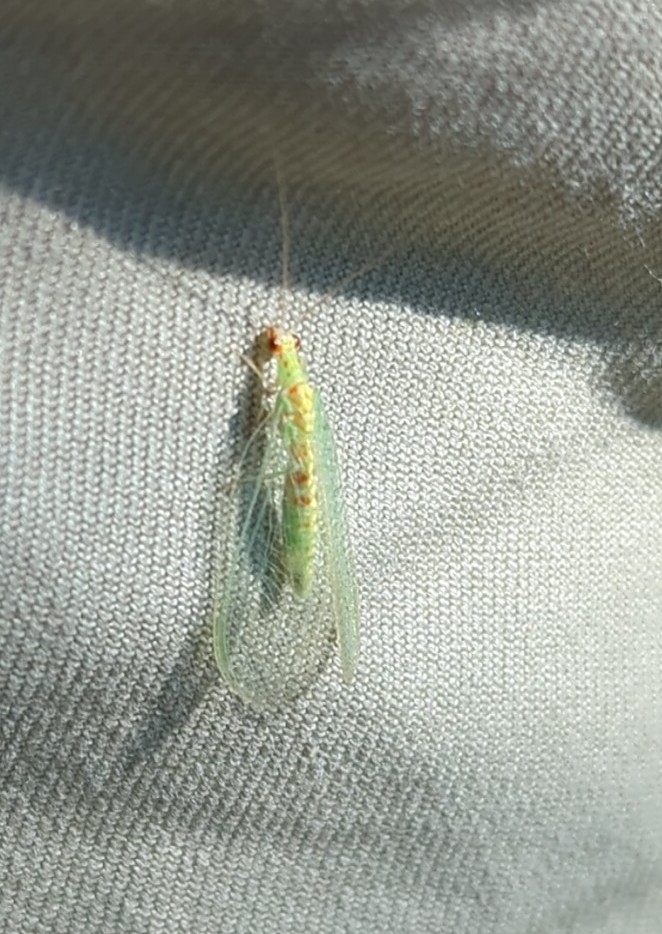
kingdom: Animalia
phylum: Arthropoda
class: Insecta
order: Neuroptera
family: Chrysopidae
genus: Chrysopa
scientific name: Chrysopa quadripunctata
